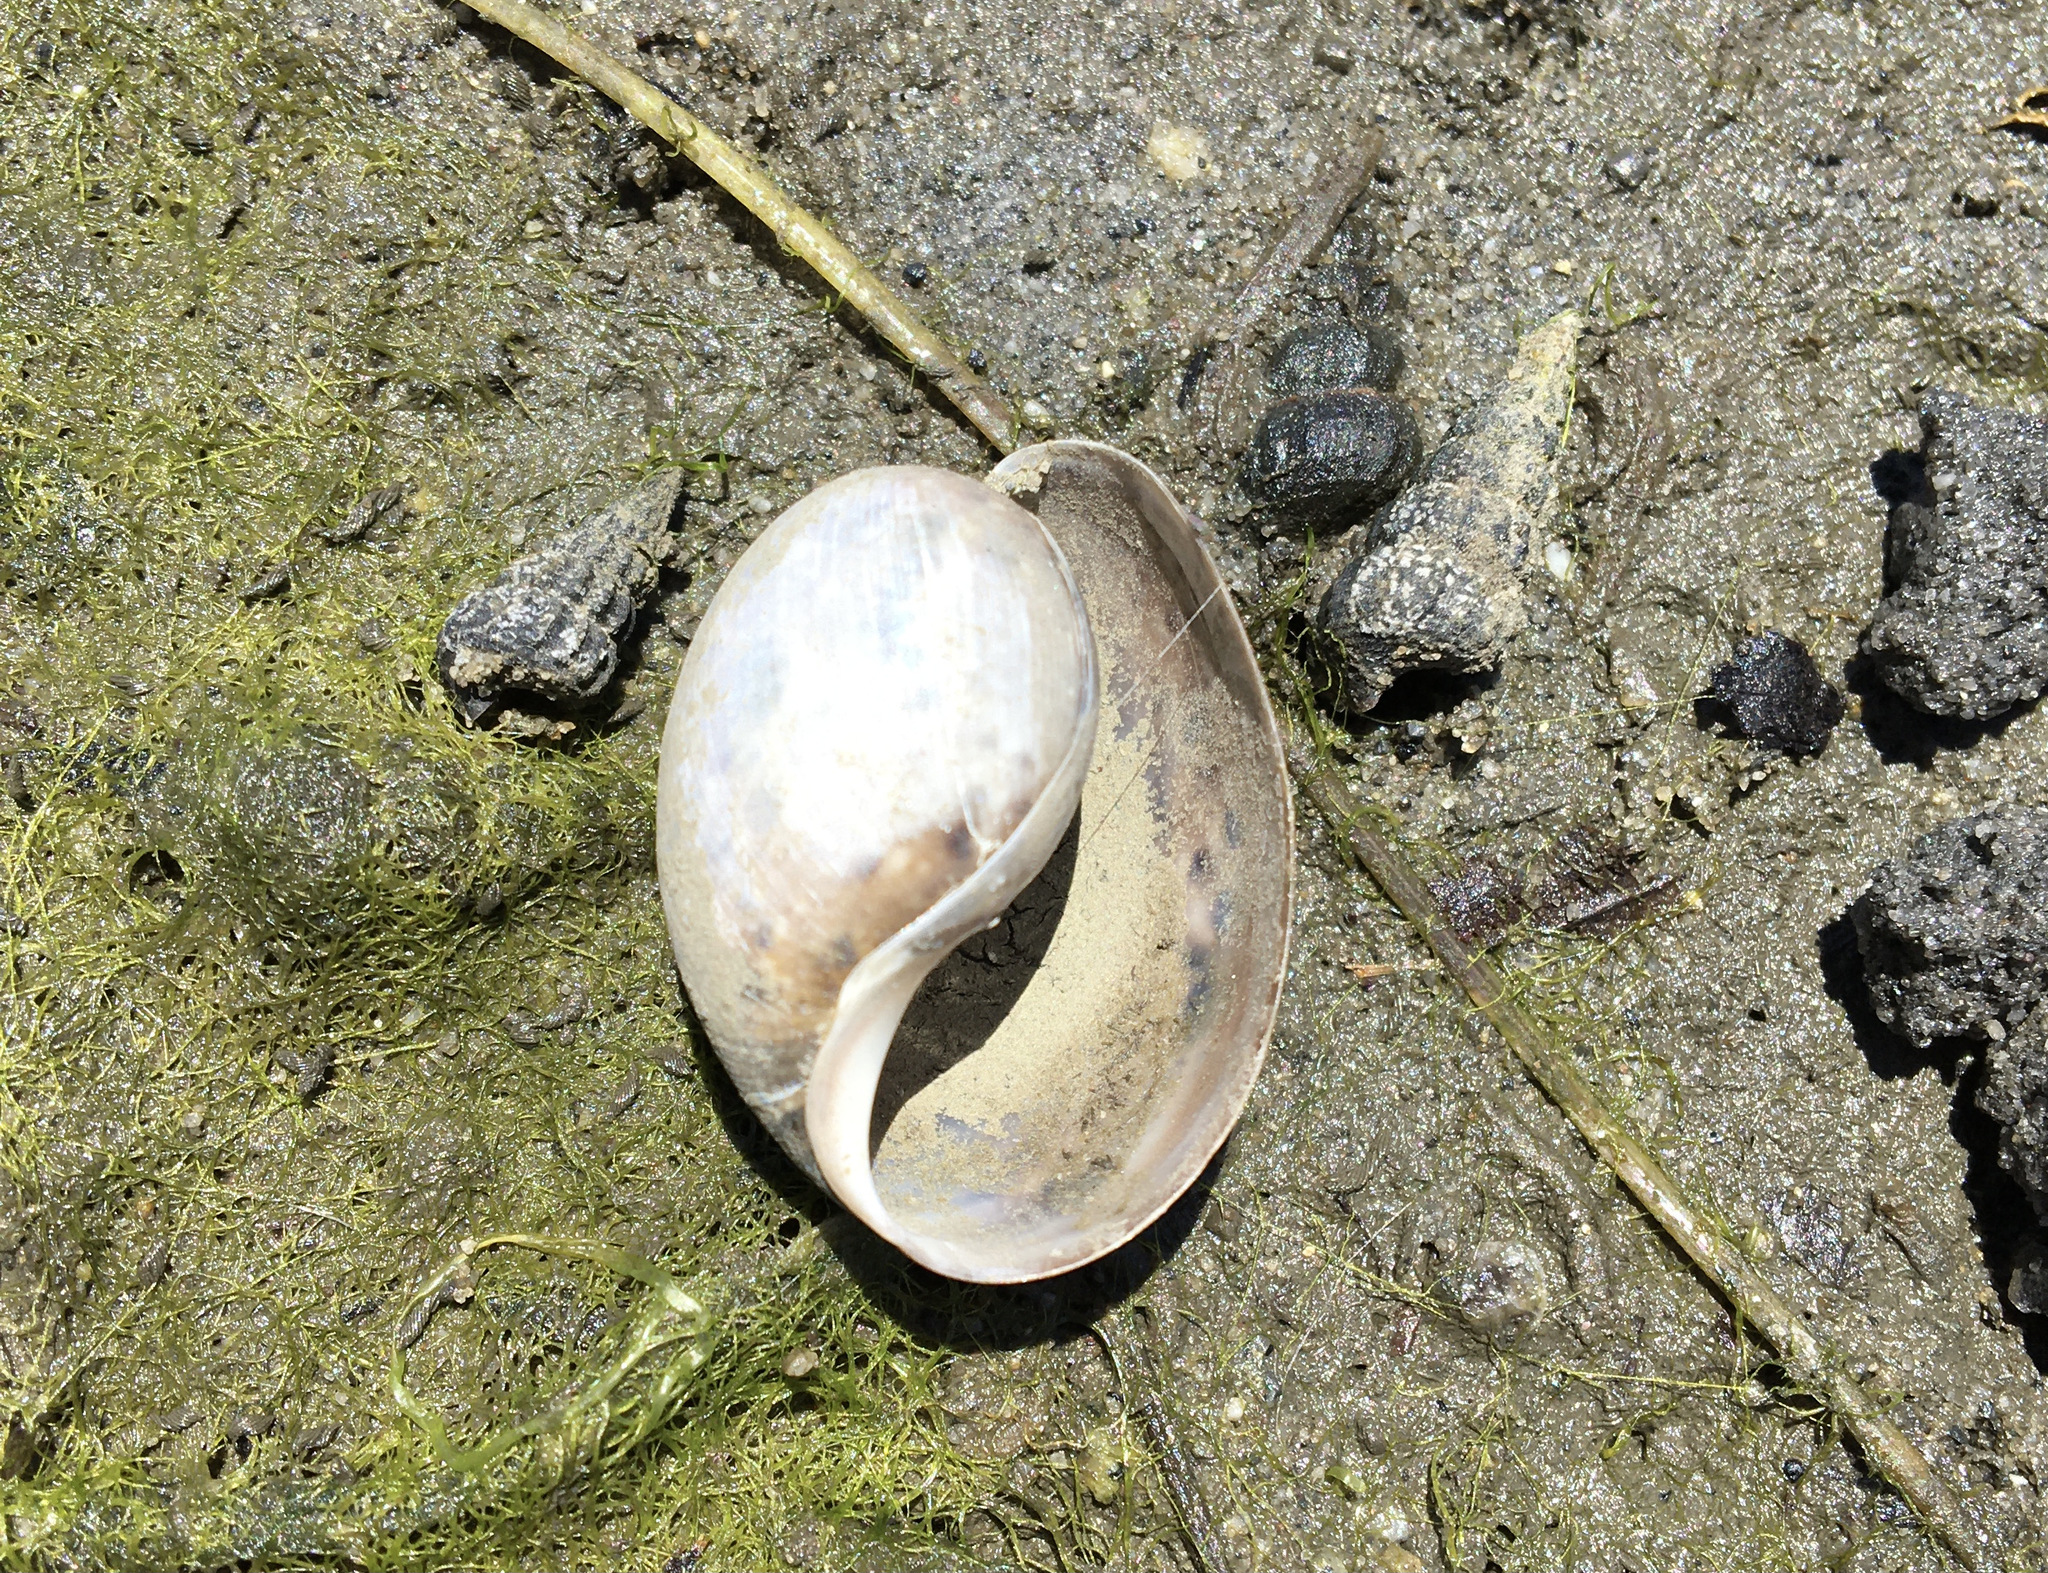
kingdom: Animalia
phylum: Mollusca
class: Gastropoda
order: Cephalaspidea
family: Bullidae
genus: Bulla
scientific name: Bulla gouldiana
